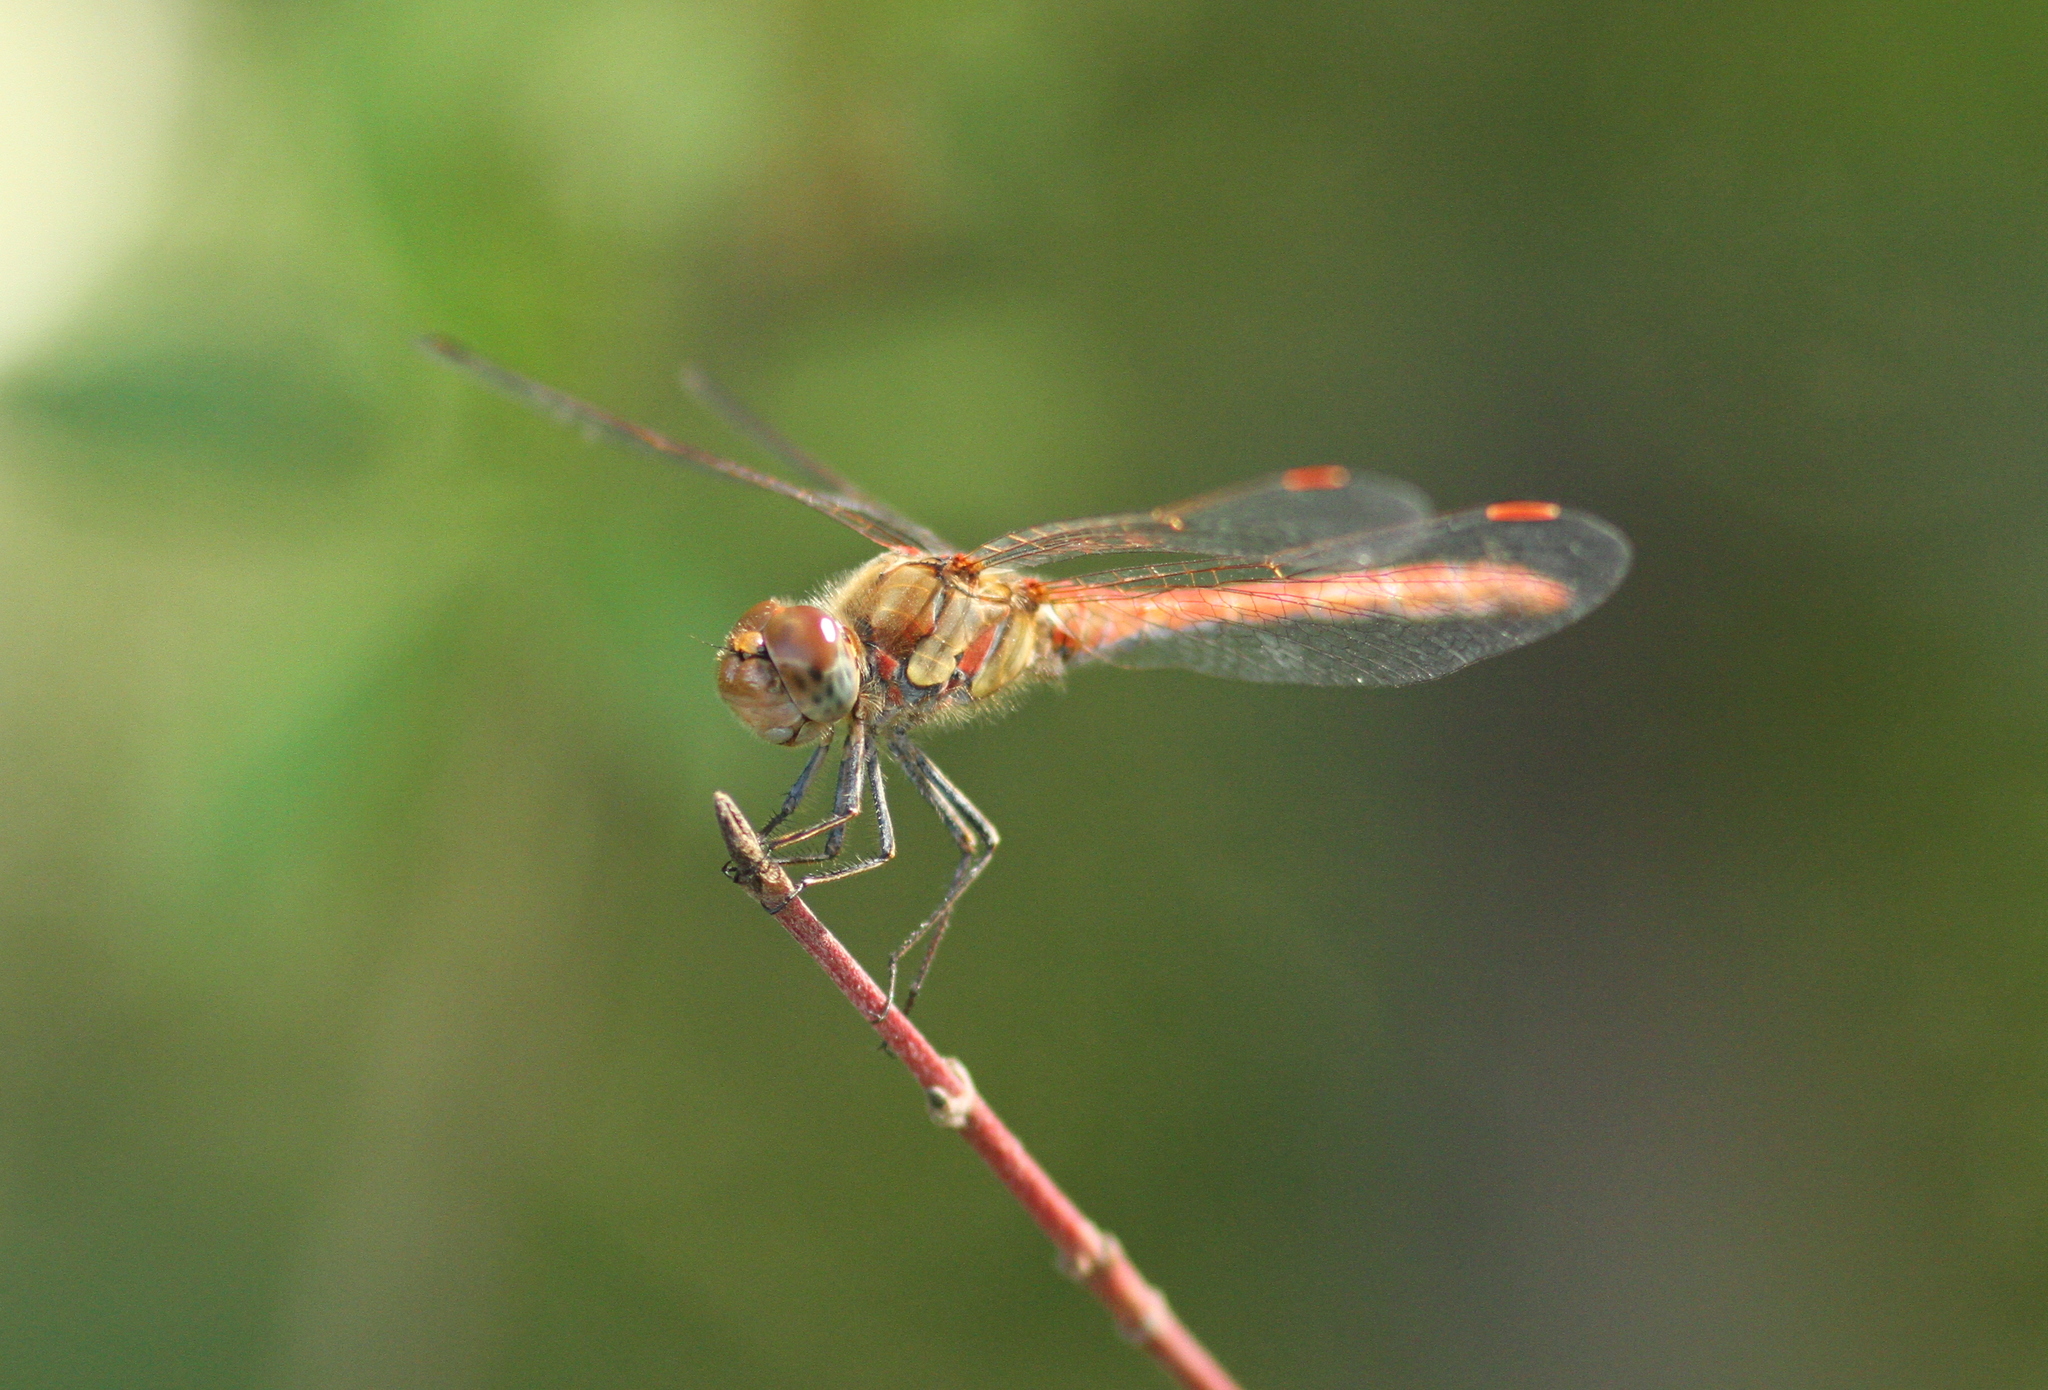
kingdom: Animalia
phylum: Arthropoda
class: Insecta
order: Odonata
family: Libellulidae
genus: Sympetrum
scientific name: Sympetrum striolatum
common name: Common darter
